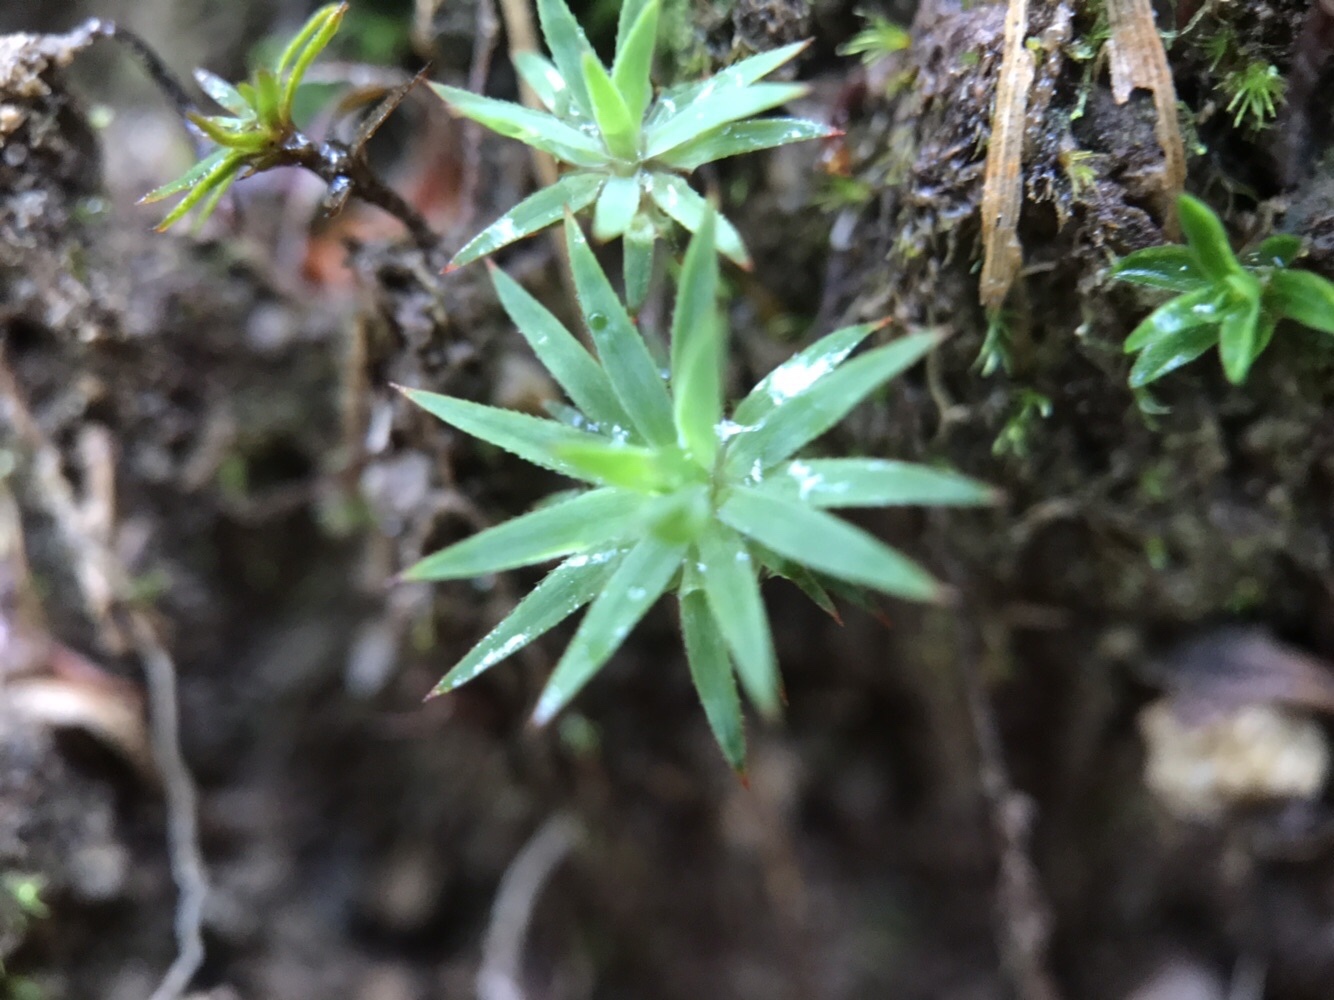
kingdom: Plantae
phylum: Bryophyta
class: Polytrichopsida
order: Polytrichales
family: Polytrichaceae
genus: Pogonatum
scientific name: Pogonatum urnigerum
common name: Urn hair moss
